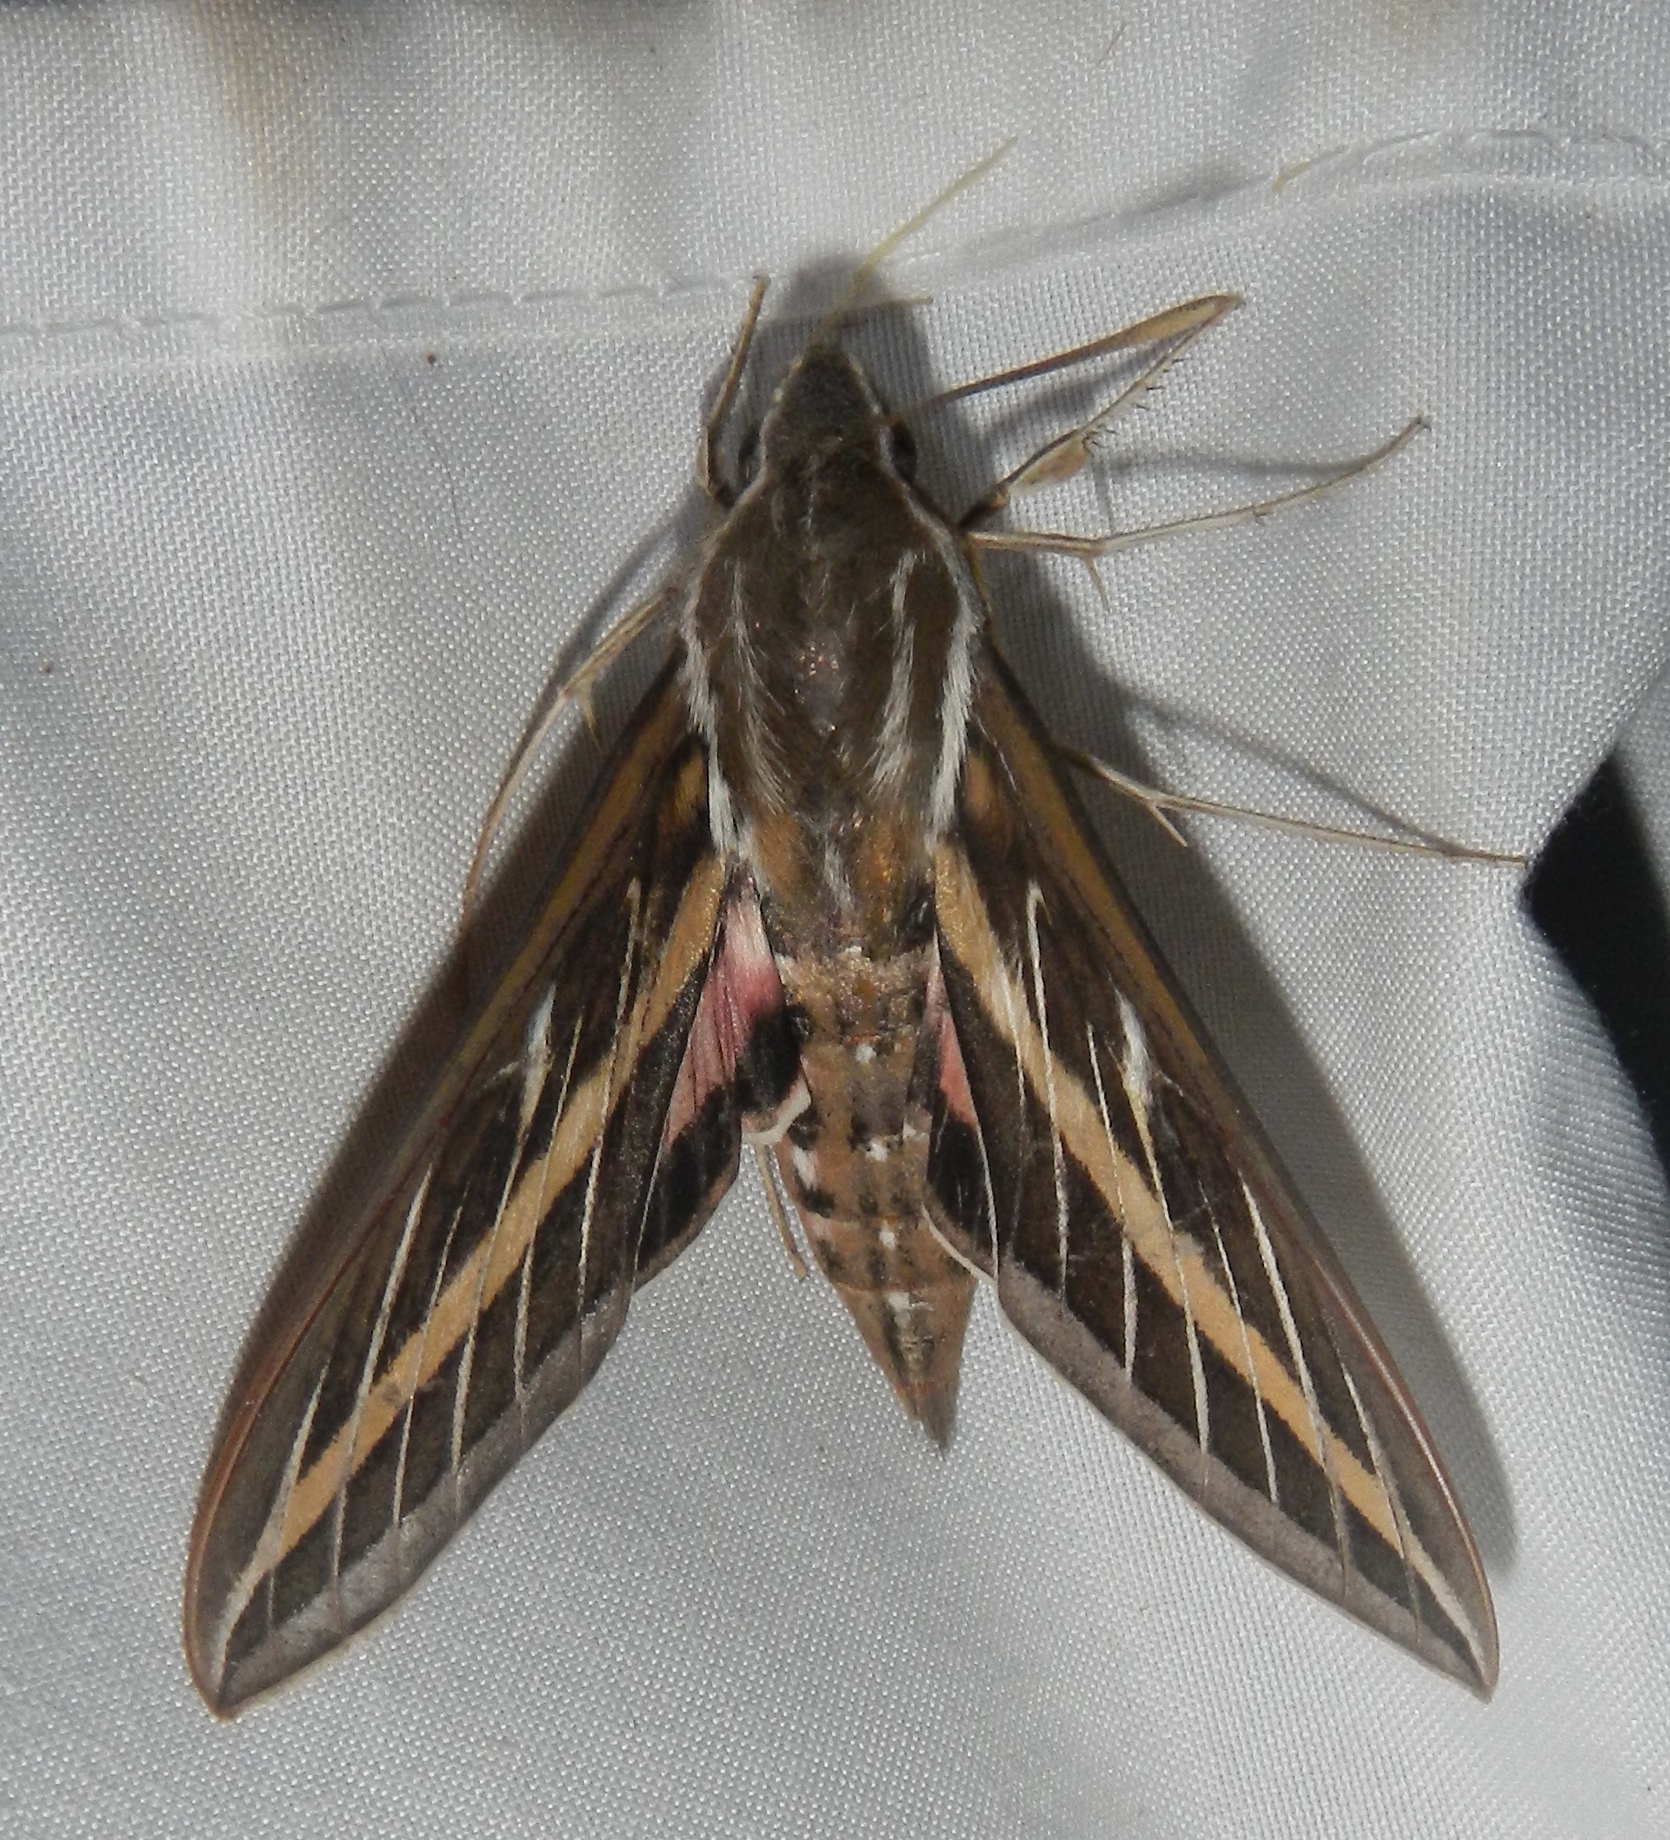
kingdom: Animalia
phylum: Arthropoda
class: Insecta
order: Lepidoptera
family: Sphingidae
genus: Hyles
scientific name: Hyles lineata
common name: White-lined sphinx
